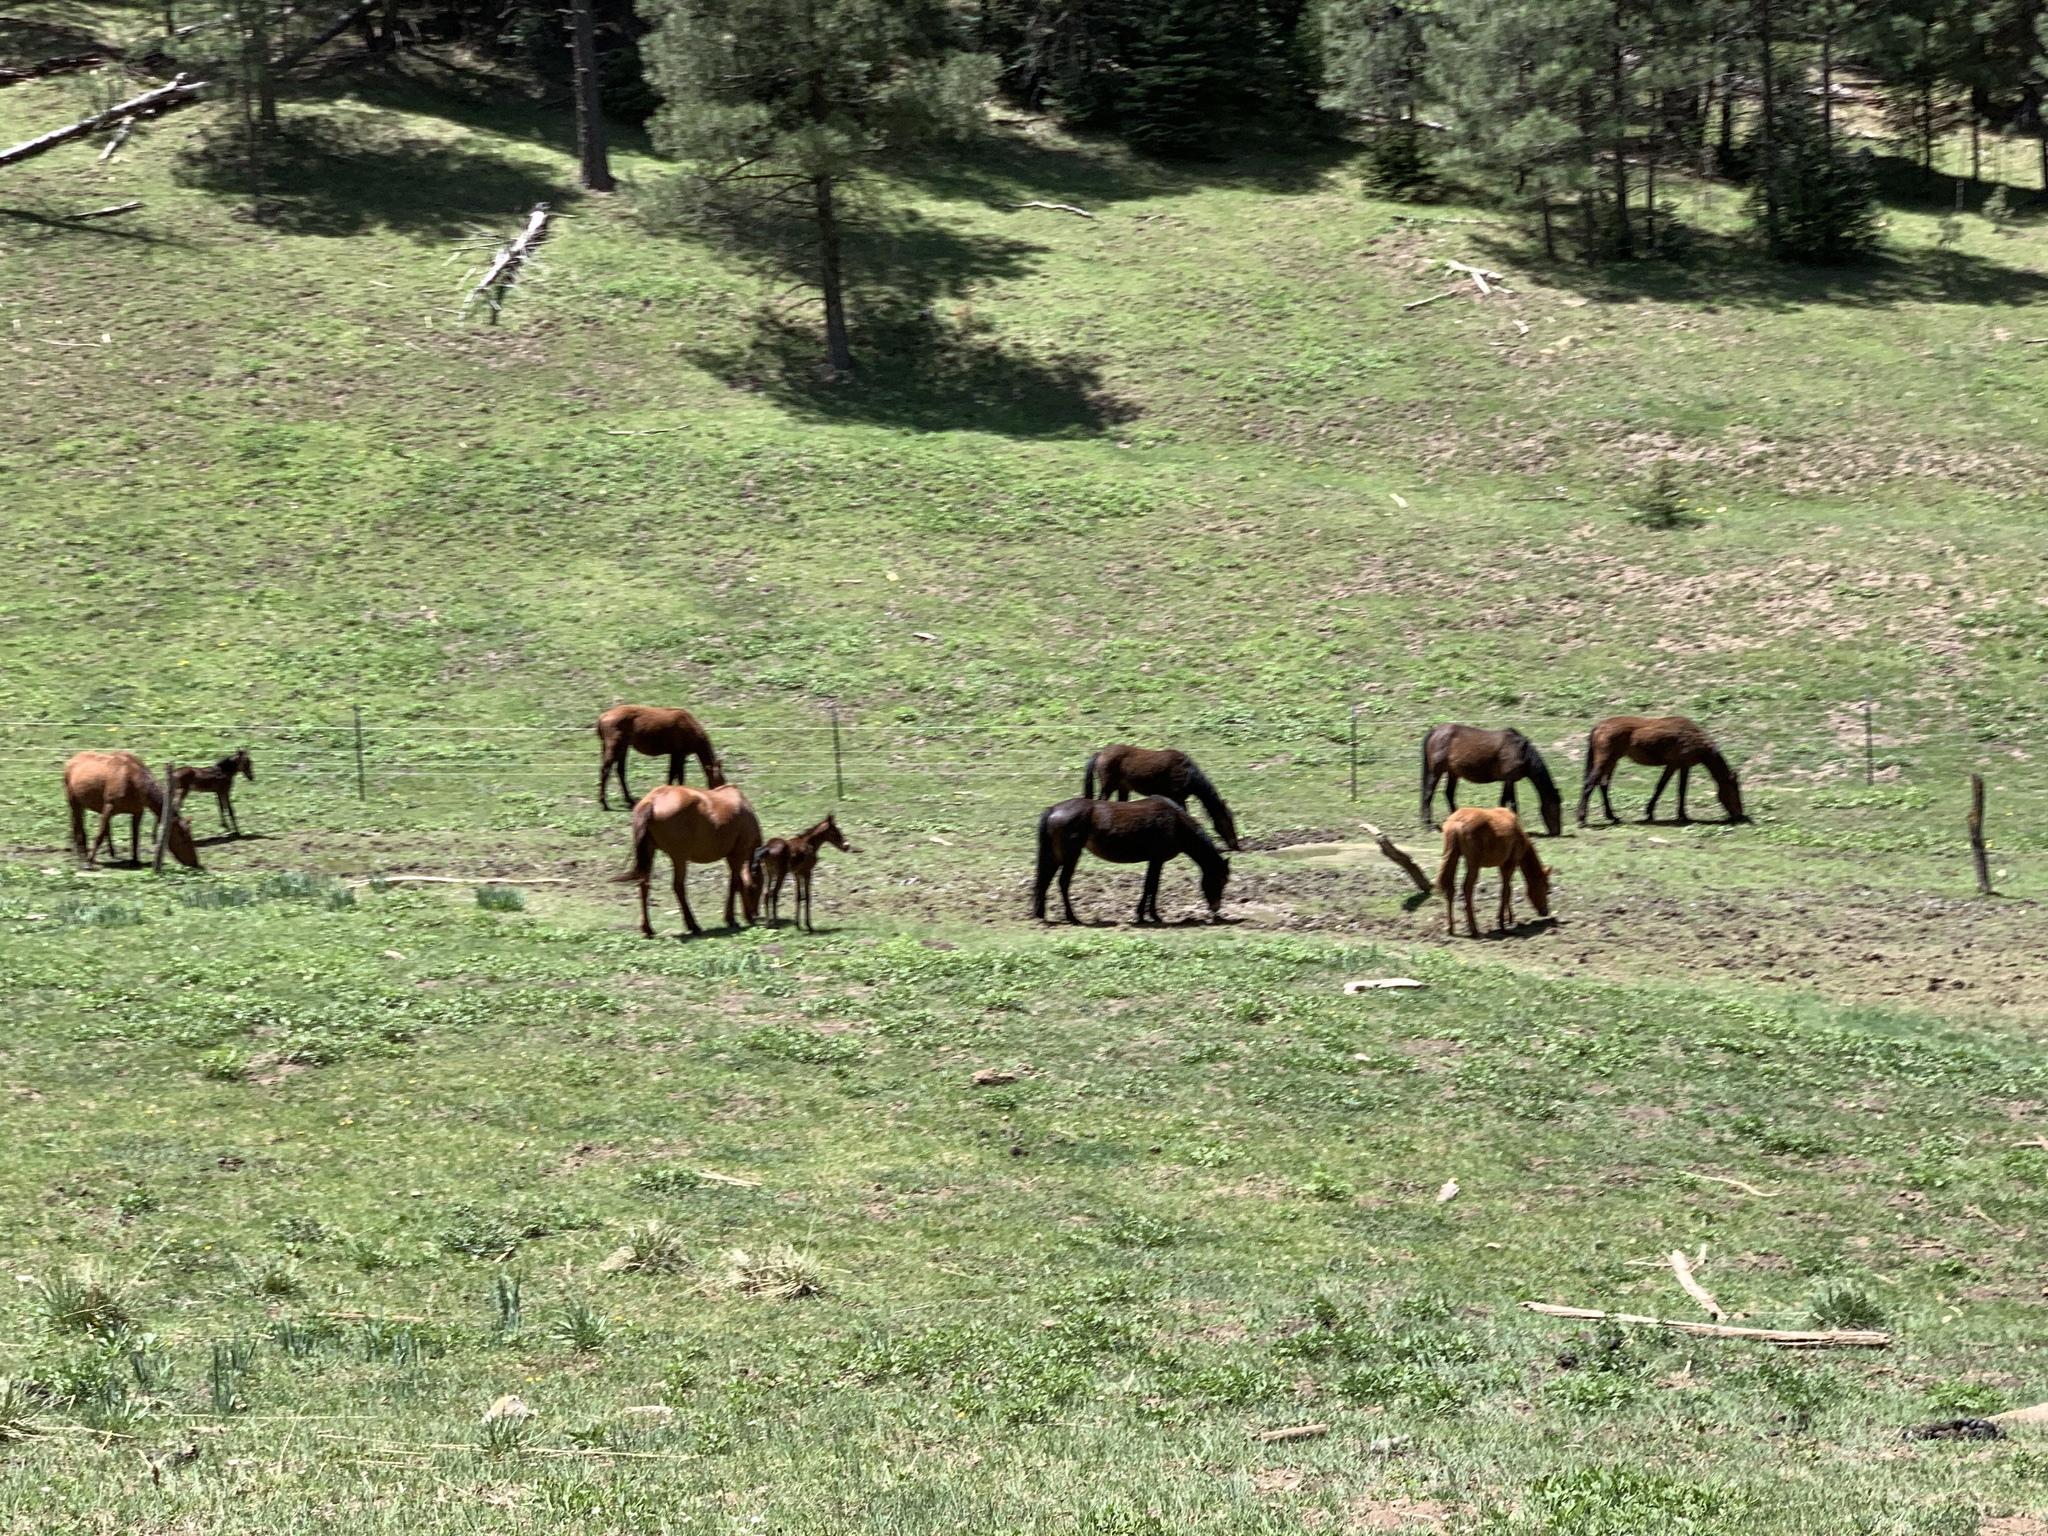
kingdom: Animalia
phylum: Chordata
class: Mammalia
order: Perissodactyla
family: Equidae
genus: Equus
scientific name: Equus caballus
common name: Horse
